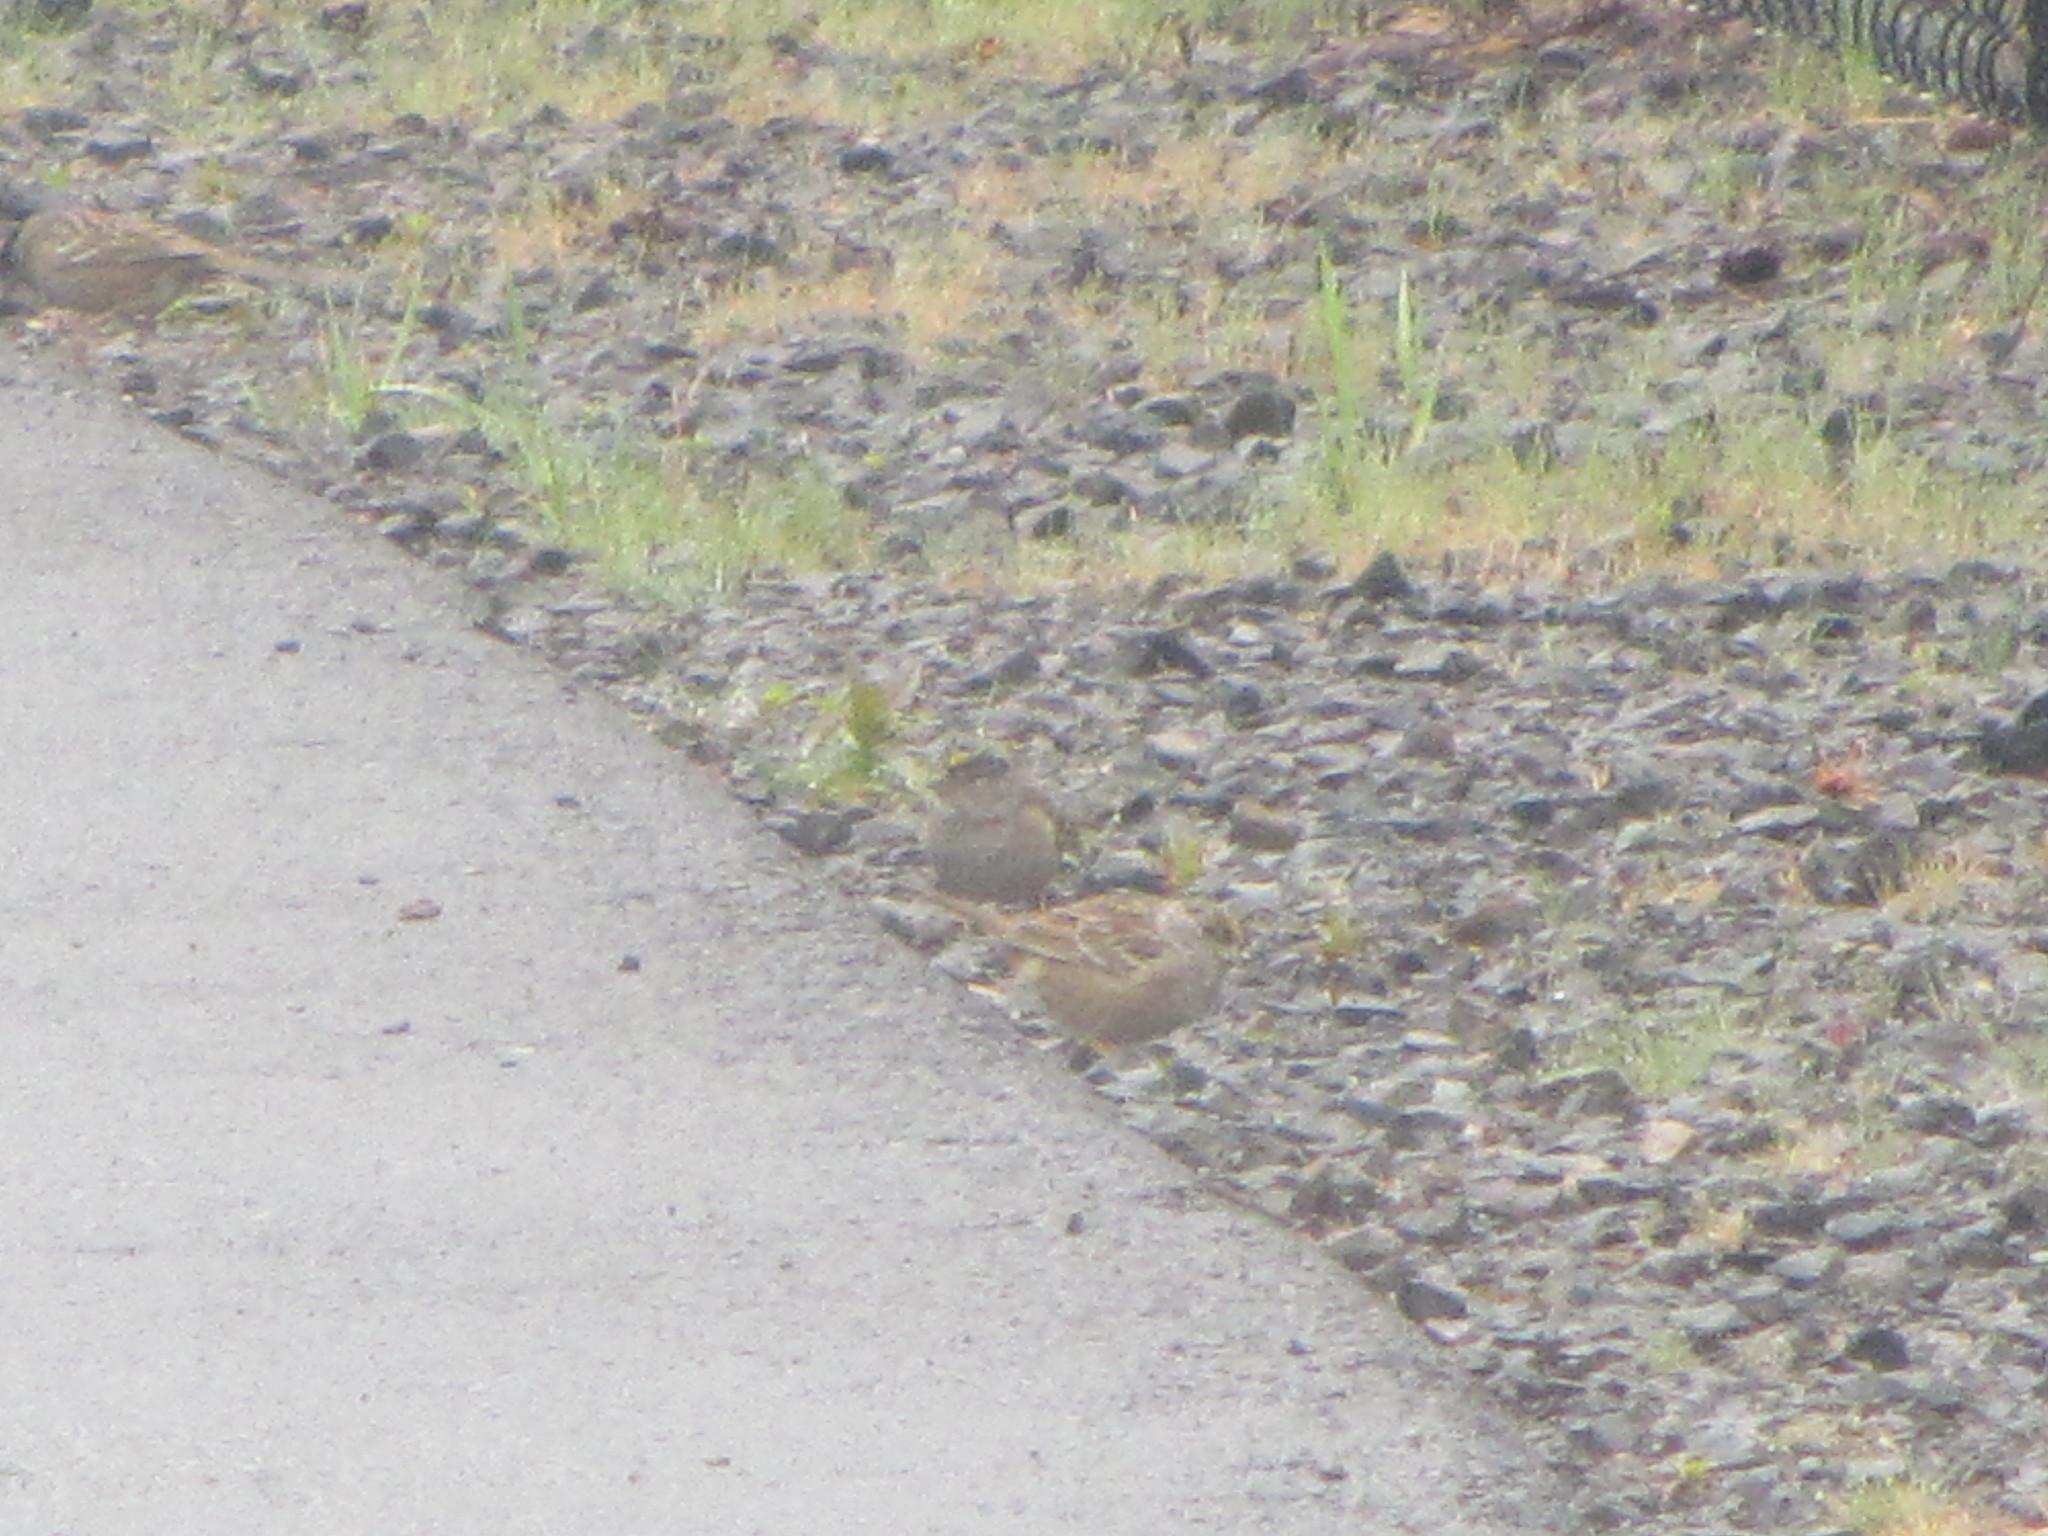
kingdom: Animalia
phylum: Chordata
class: Aves
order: Passeriformes
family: Passerellidae
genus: Zonotrichia
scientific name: Zonotrichia atricapilla
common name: Golden-crowned sparrow
